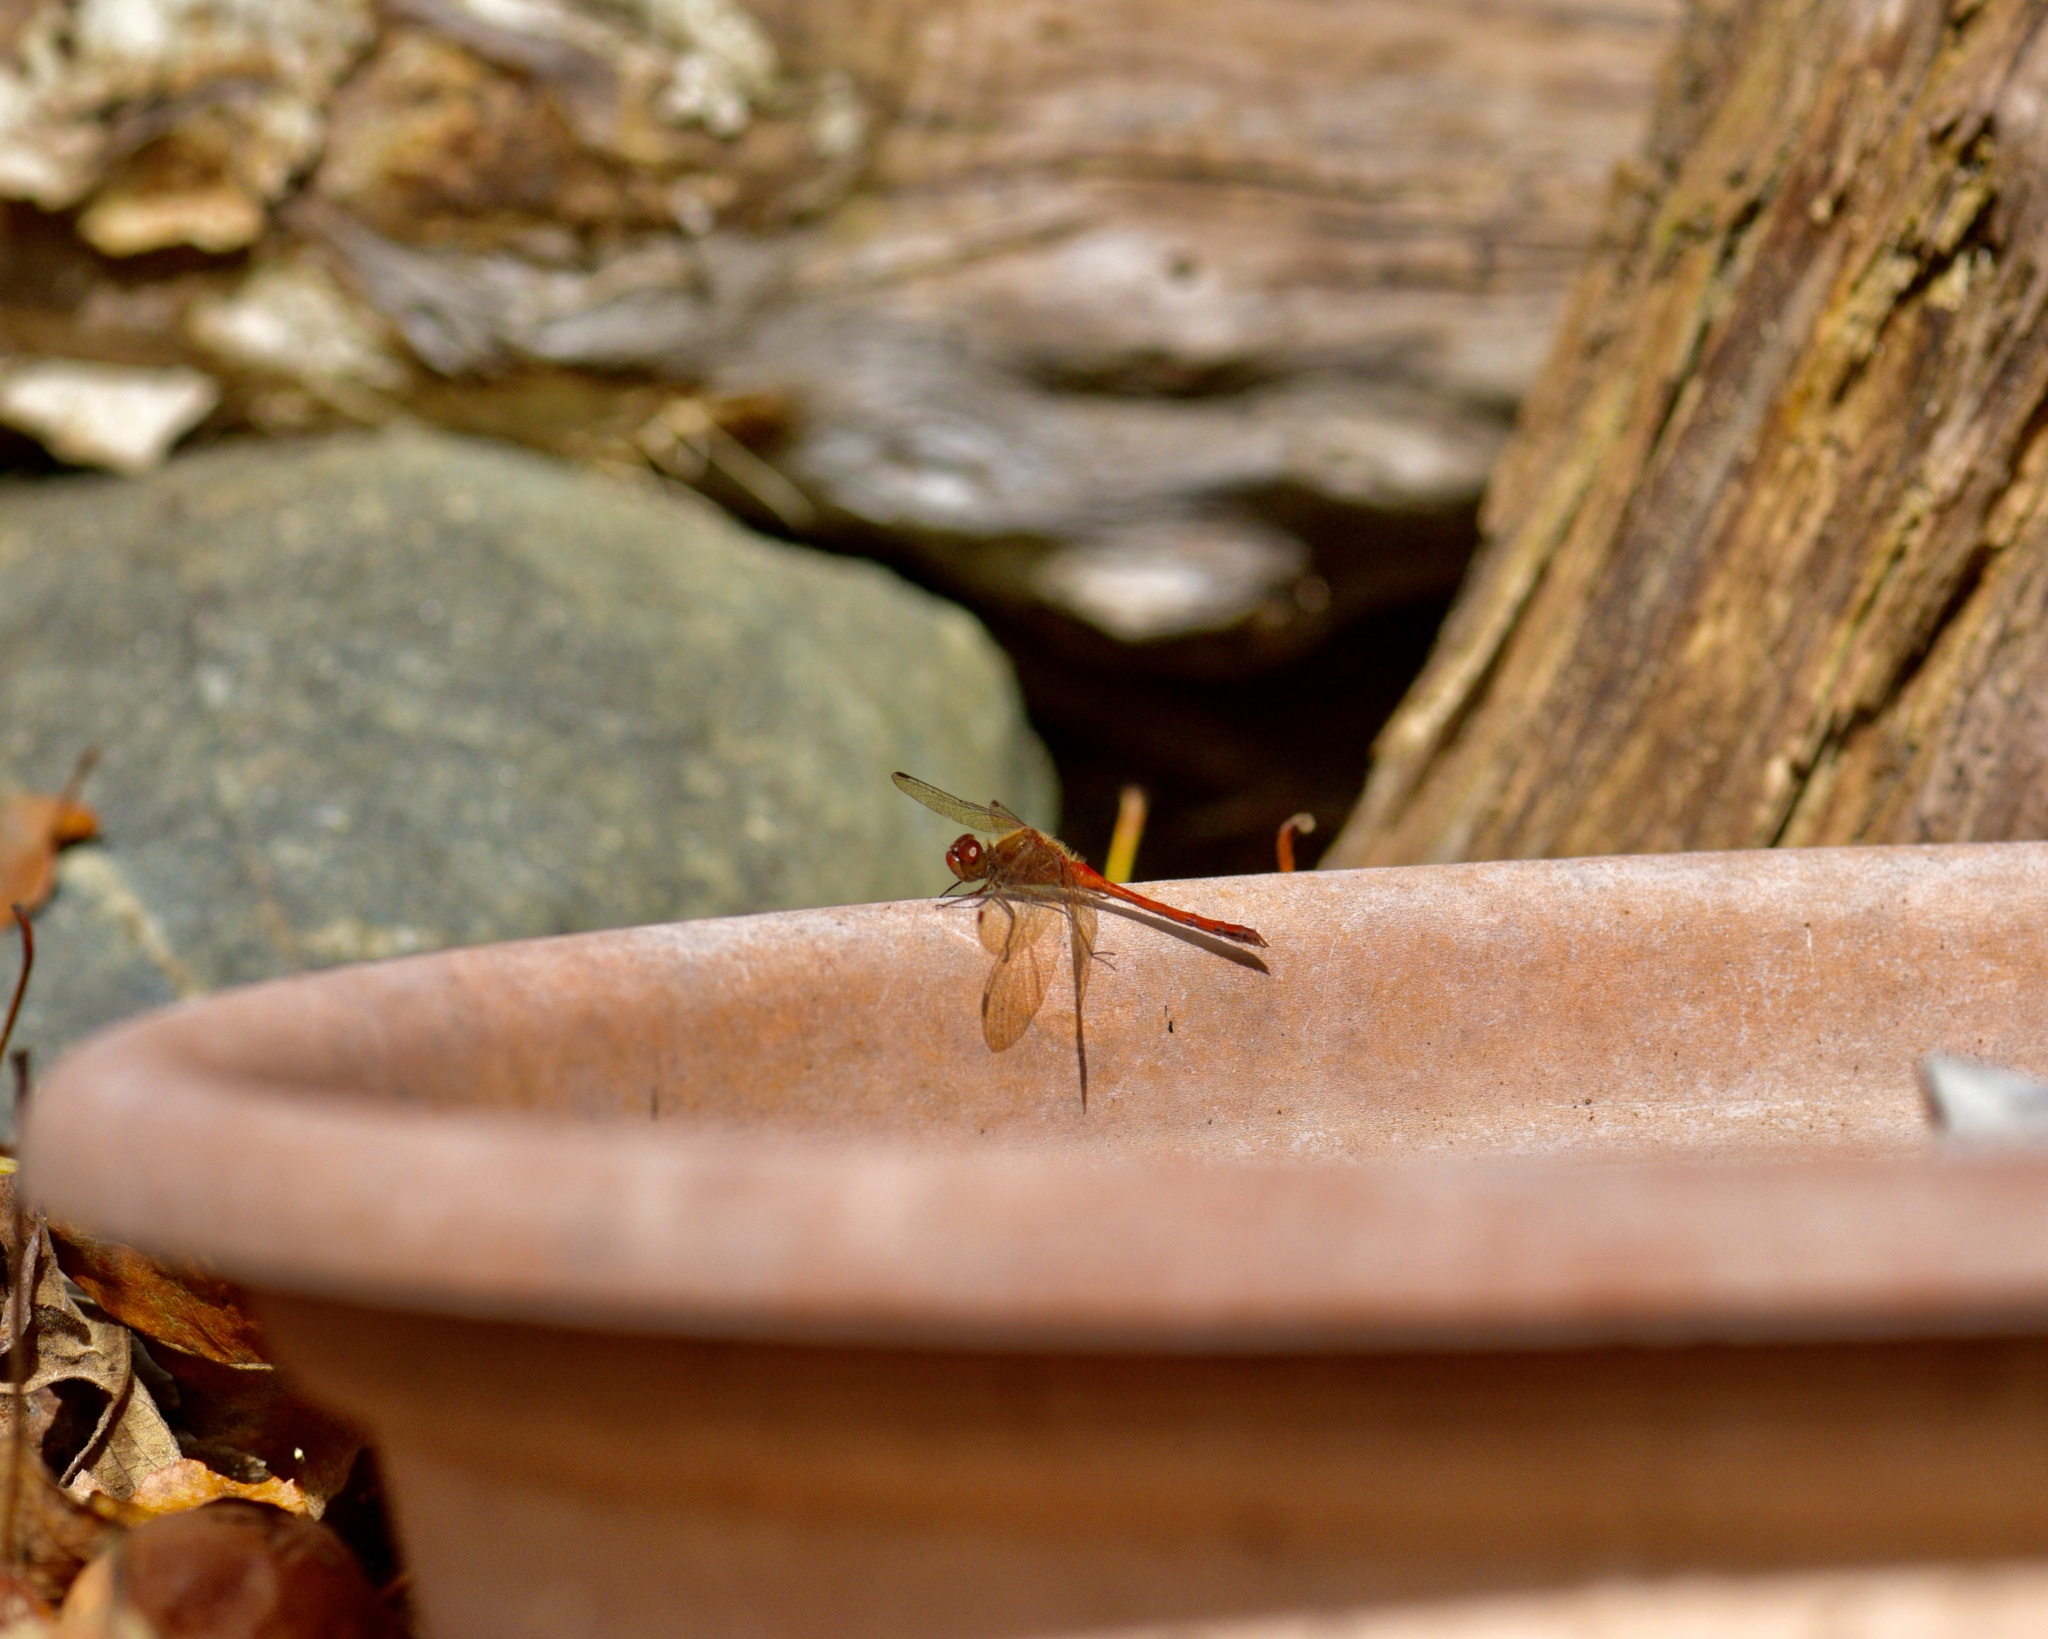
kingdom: Animalia
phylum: Arthropoda
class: Insecta
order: Odonata
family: Libellulidae
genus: Sympetrum
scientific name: Sympetrum vicinum
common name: Autumn meadowhawk
